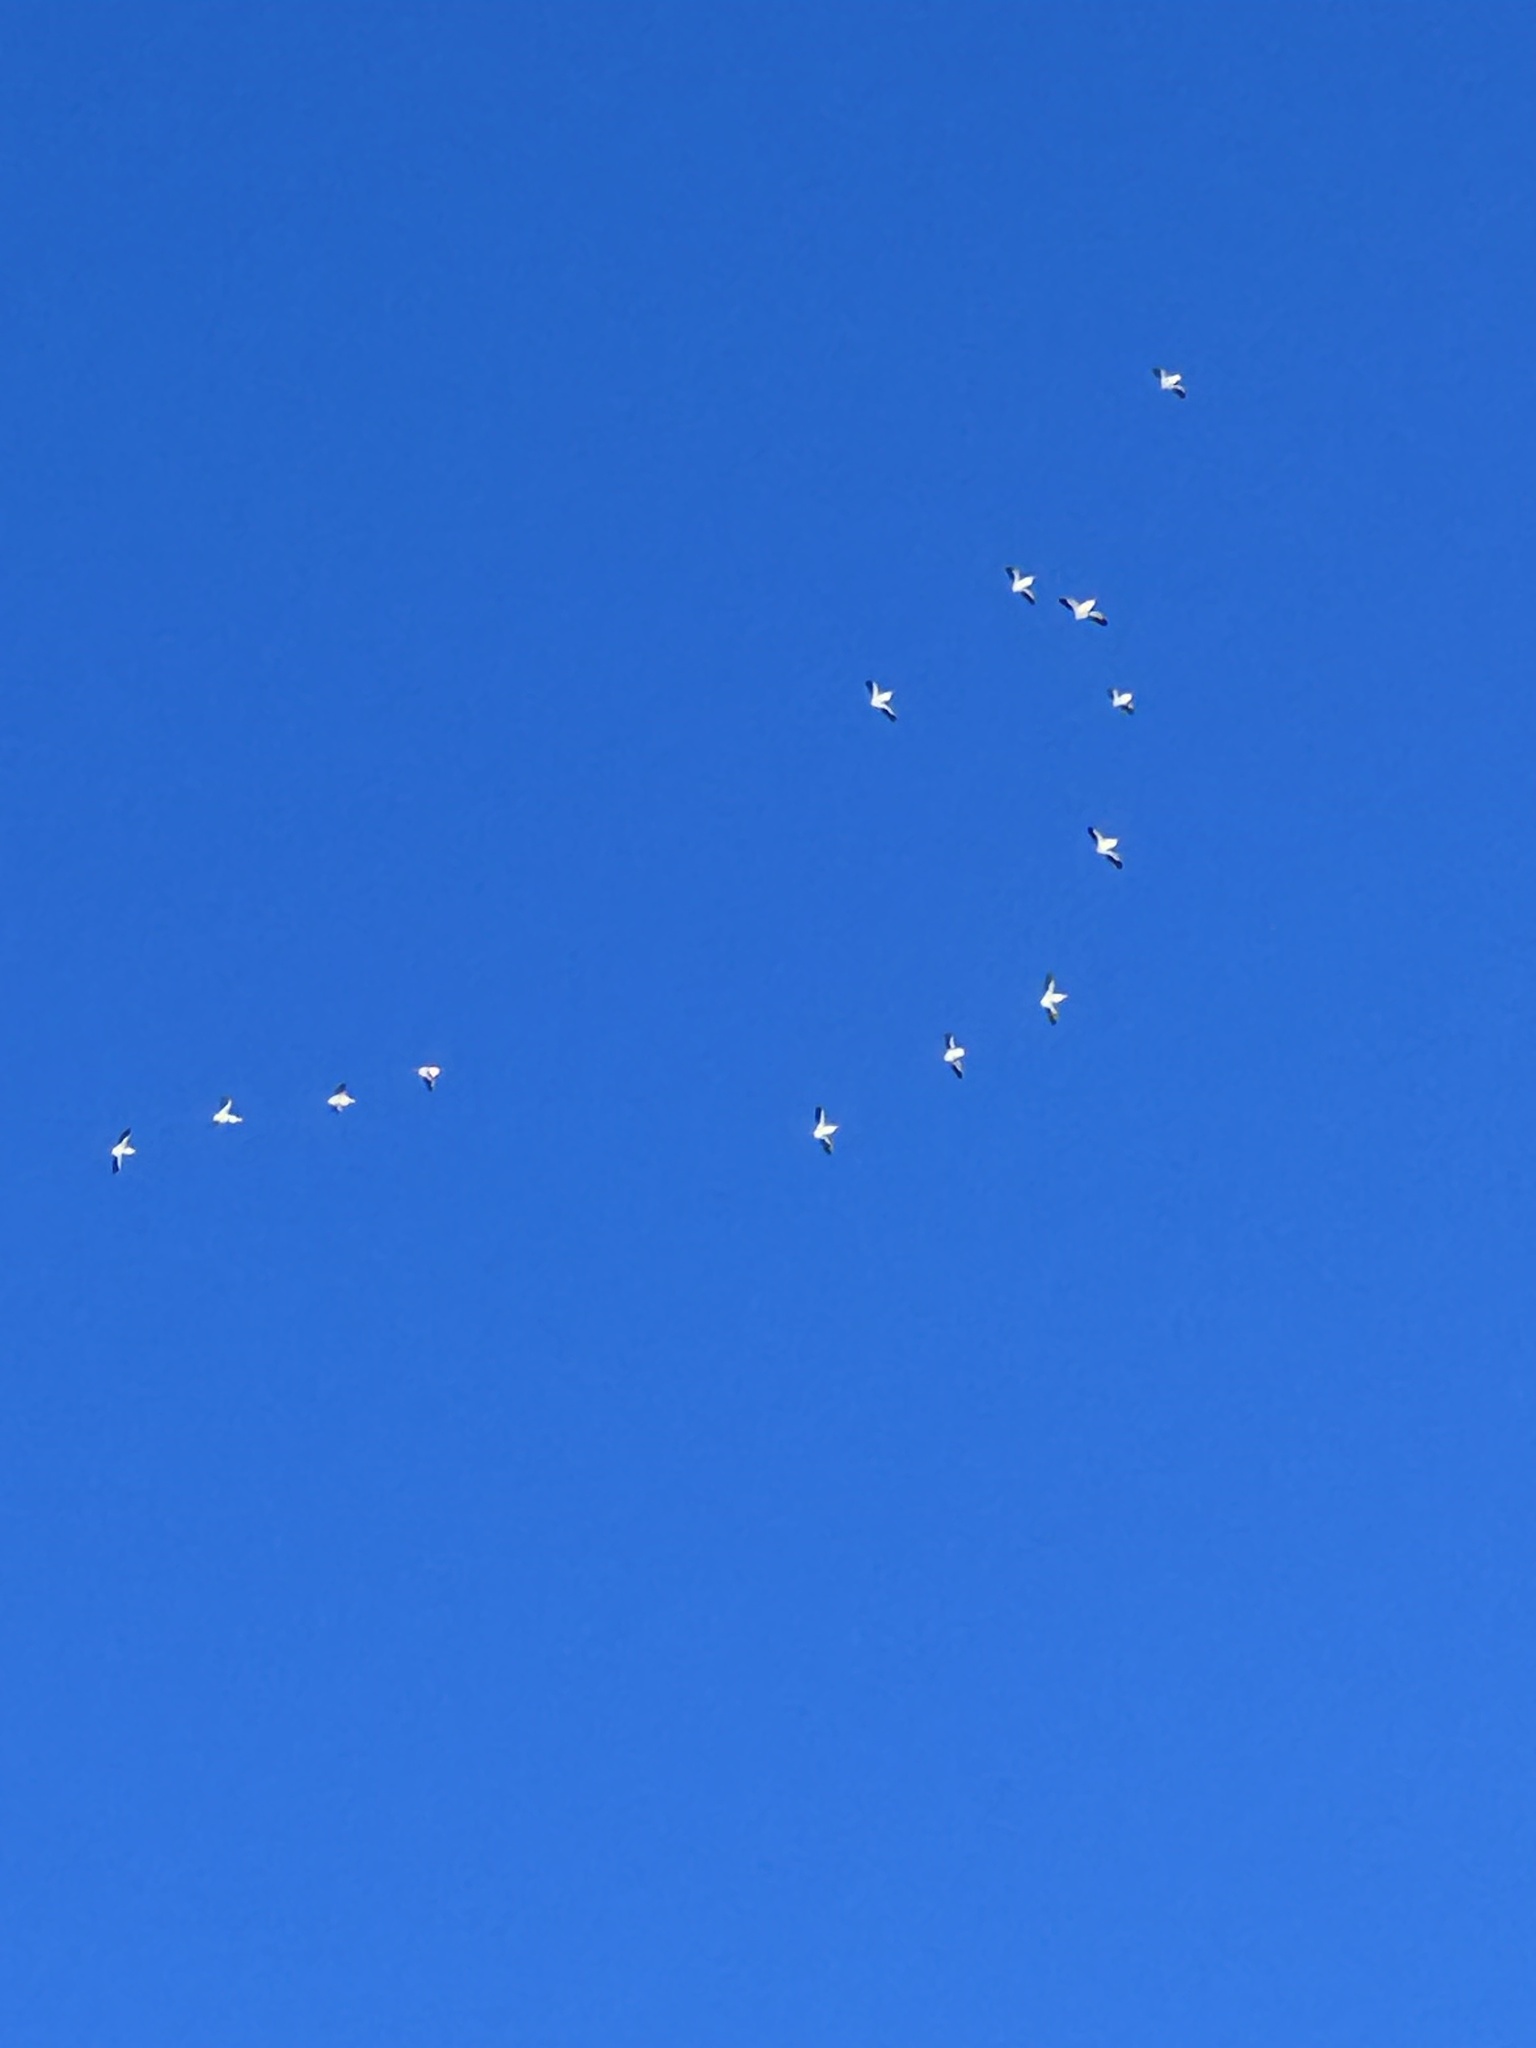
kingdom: Animalia
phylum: Chordata
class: Aves
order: Pelecaniformes
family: Pelecanidae
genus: Pelecanus
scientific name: Pelecanus erythrorhynchos
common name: American white pelican
